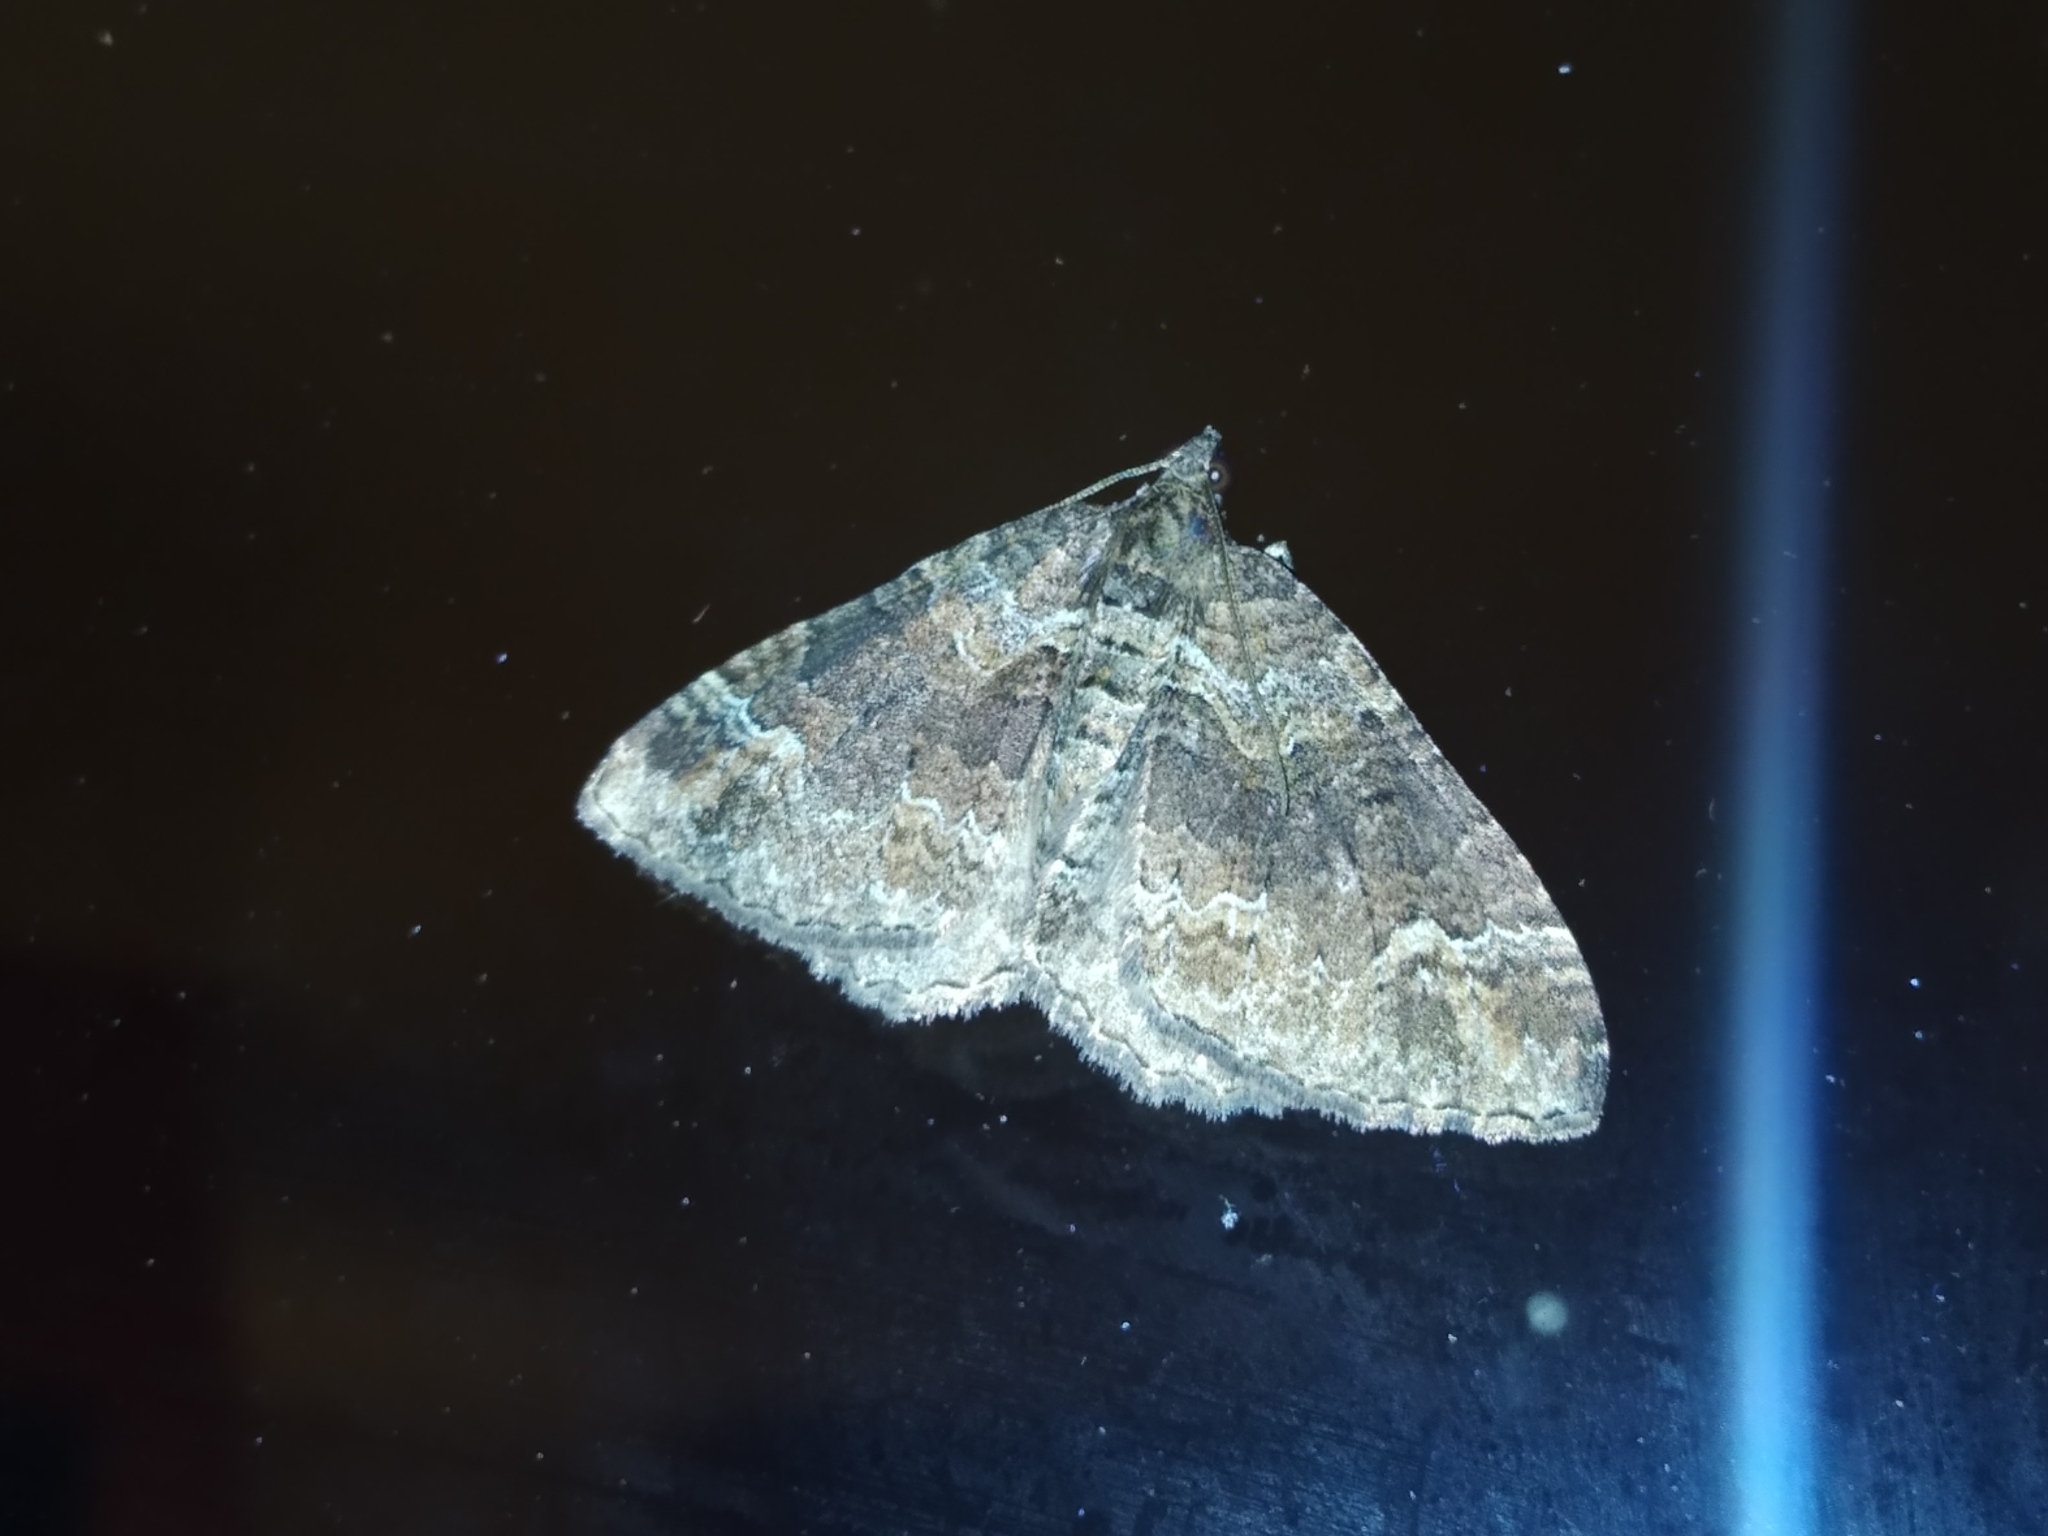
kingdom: Animalia
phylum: Arthropoda
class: Insecta
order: Lepidoptera
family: Geometridae
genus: Catarhoe
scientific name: Catarhoe basochesiata
